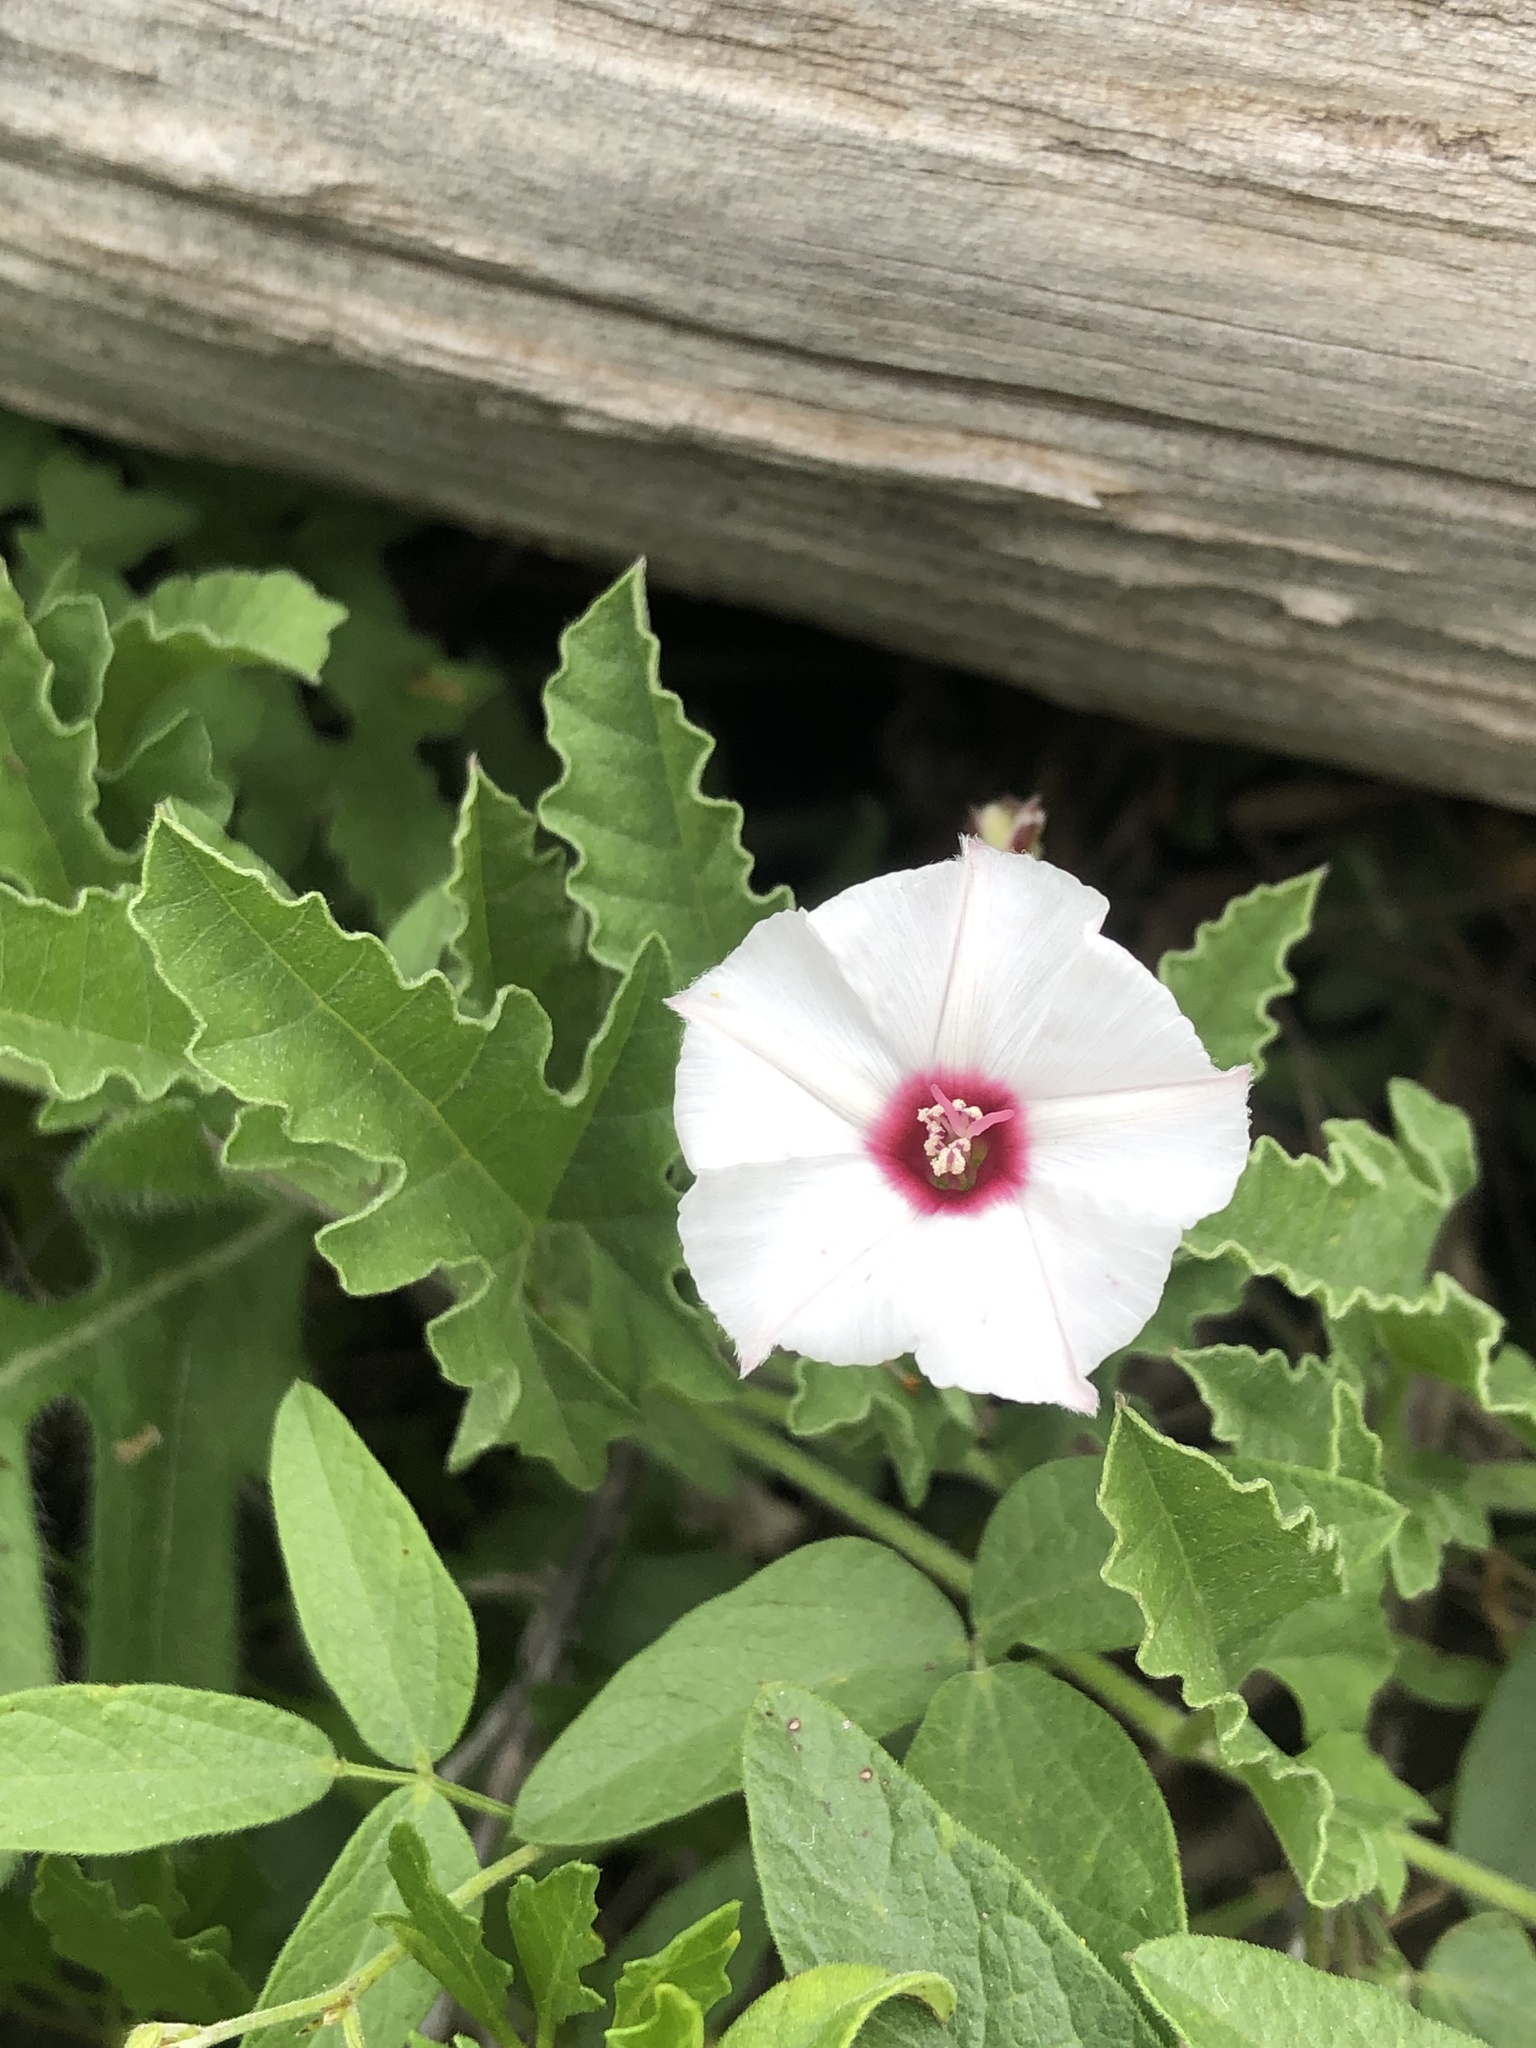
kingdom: Plantae
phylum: Tracheophyta
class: Magnoliopsida
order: Solanales
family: Convolvulaceae
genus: Convolvulus
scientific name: Convolvulus equitans
